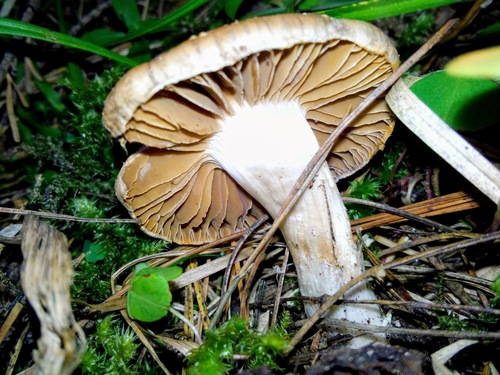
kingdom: Fungi
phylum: Basidiomycota
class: Agaricomycetes
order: Agaricales
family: Cortinariaceae
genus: Cortinarius
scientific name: Cortinarius
